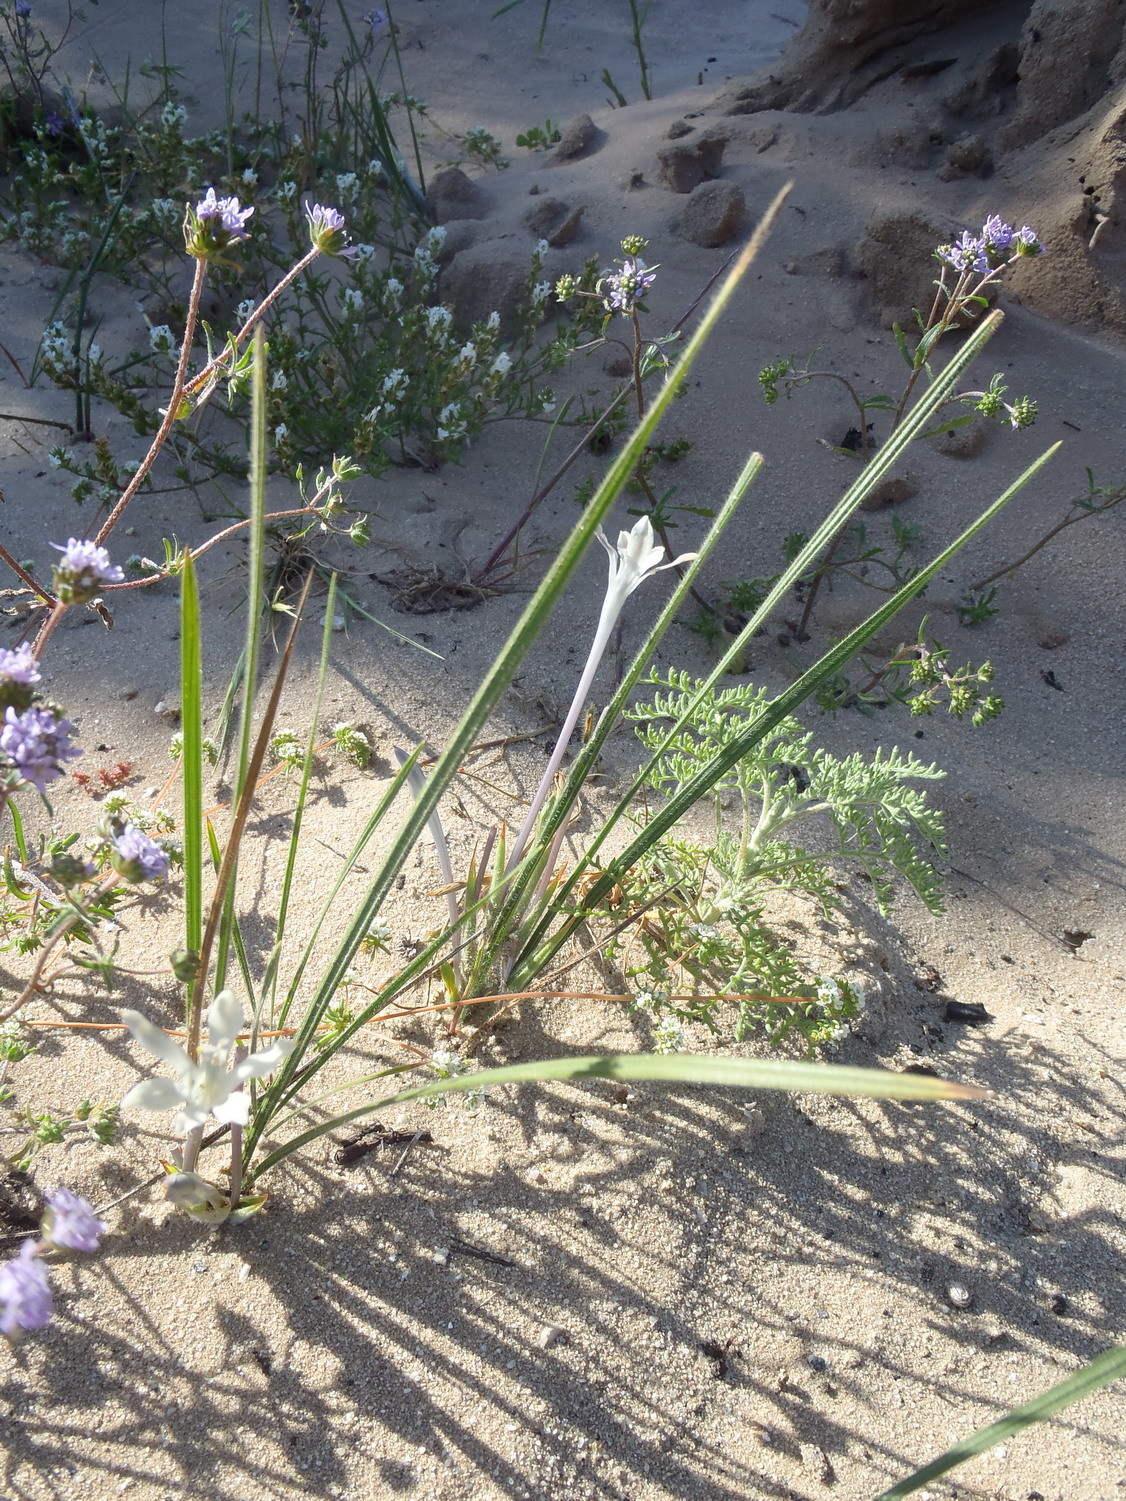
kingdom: Plantae
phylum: Tracheophyta
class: Liliopsida
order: Asparagales
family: Iridaceae
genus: Babiana
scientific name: Babiana tubiflora
